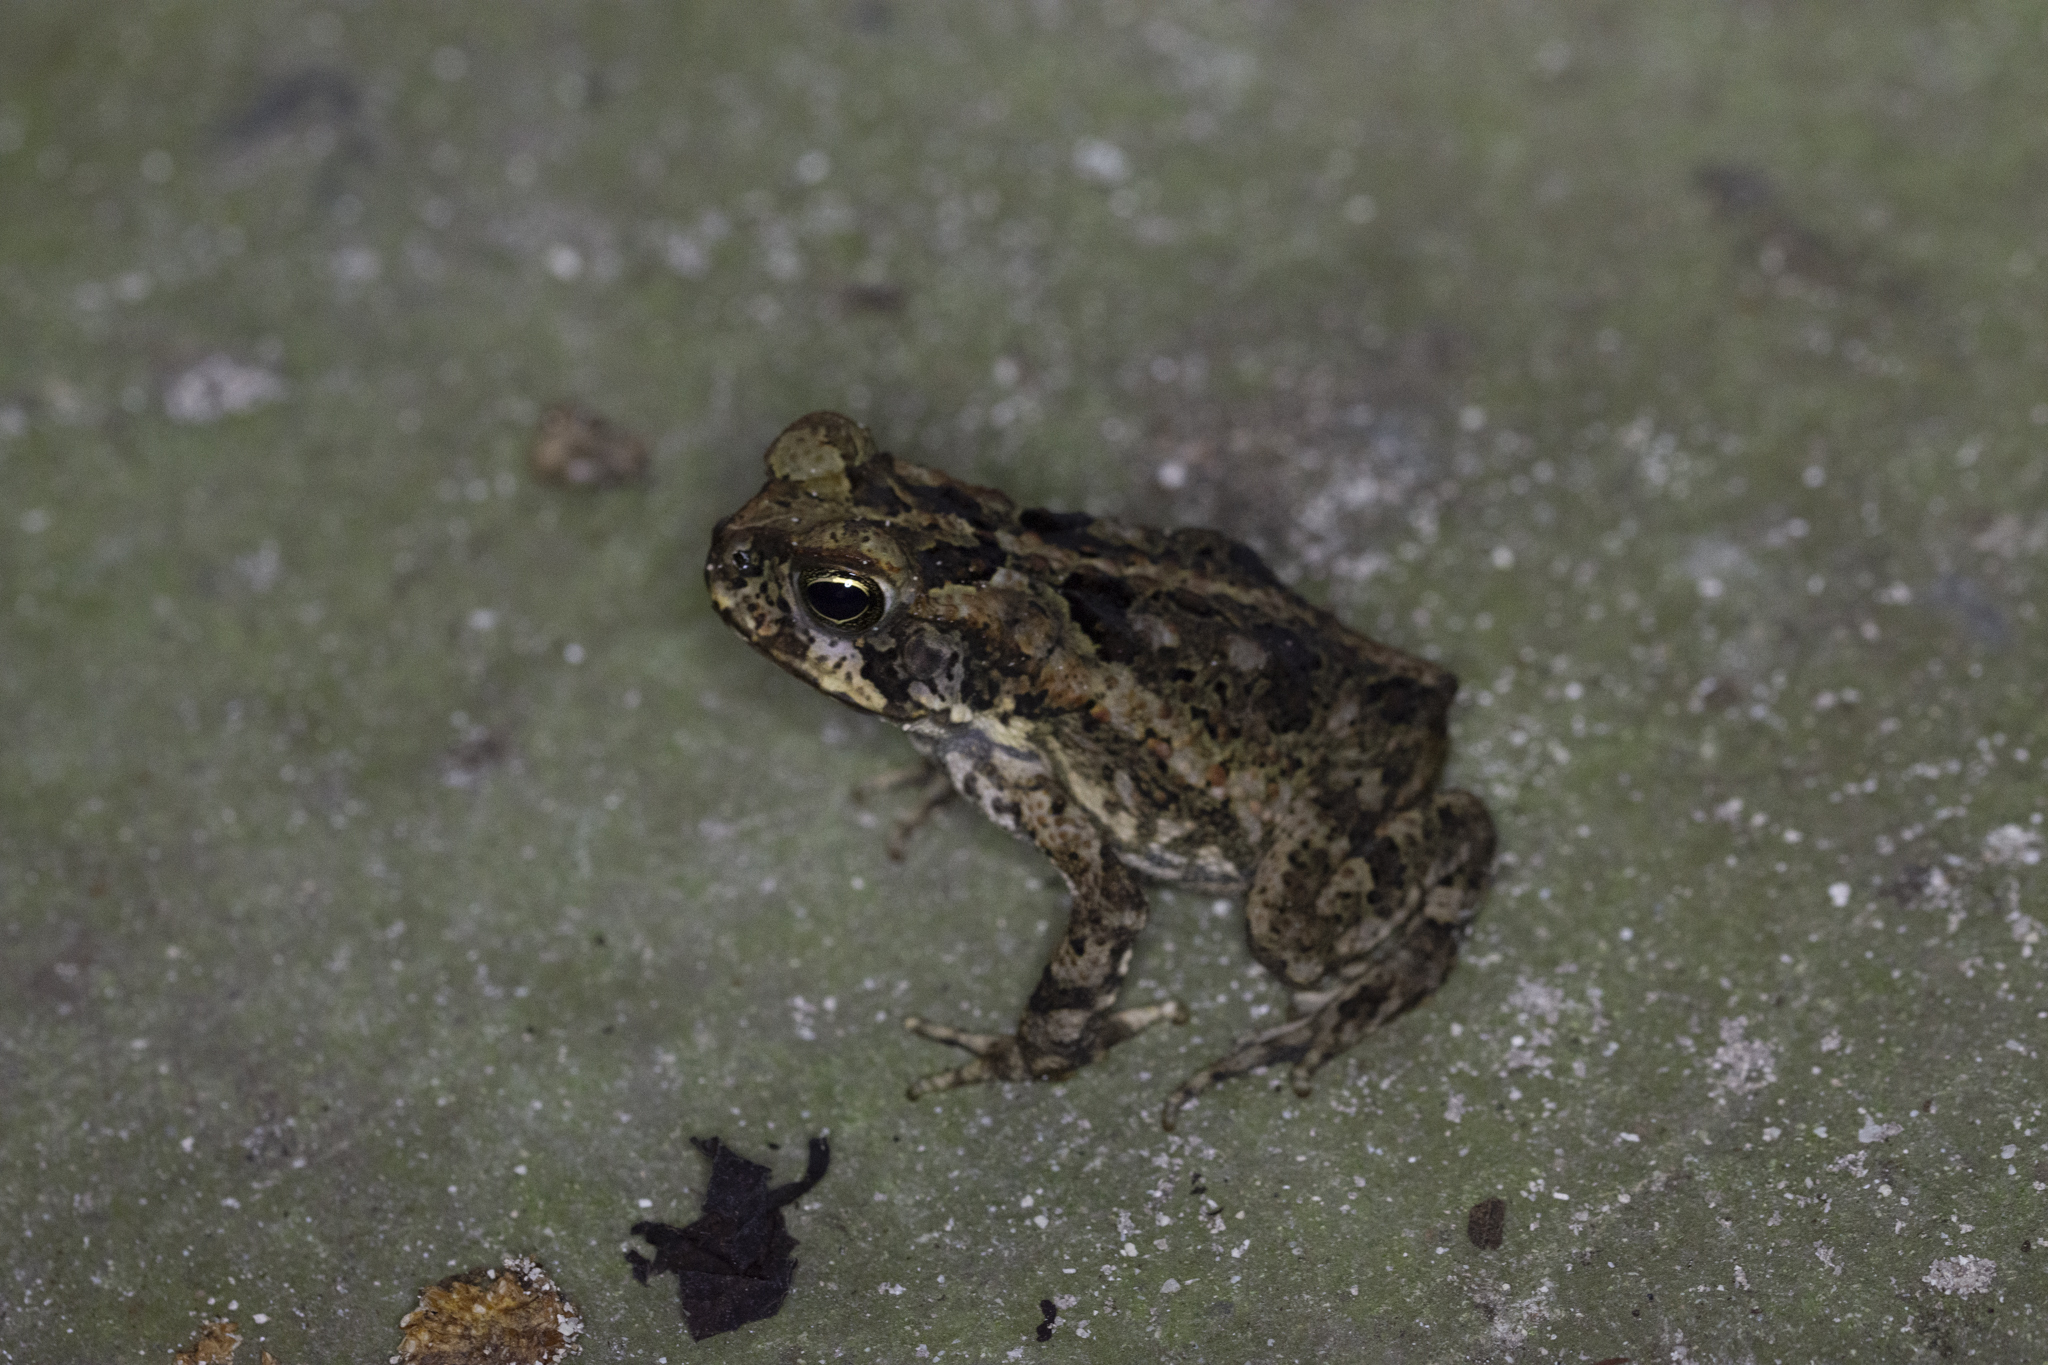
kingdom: Animalia
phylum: Chordata
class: Amphibia
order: Anura
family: Bufonidae
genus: Rhinella
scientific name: Rhinella marina
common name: Cane toad
